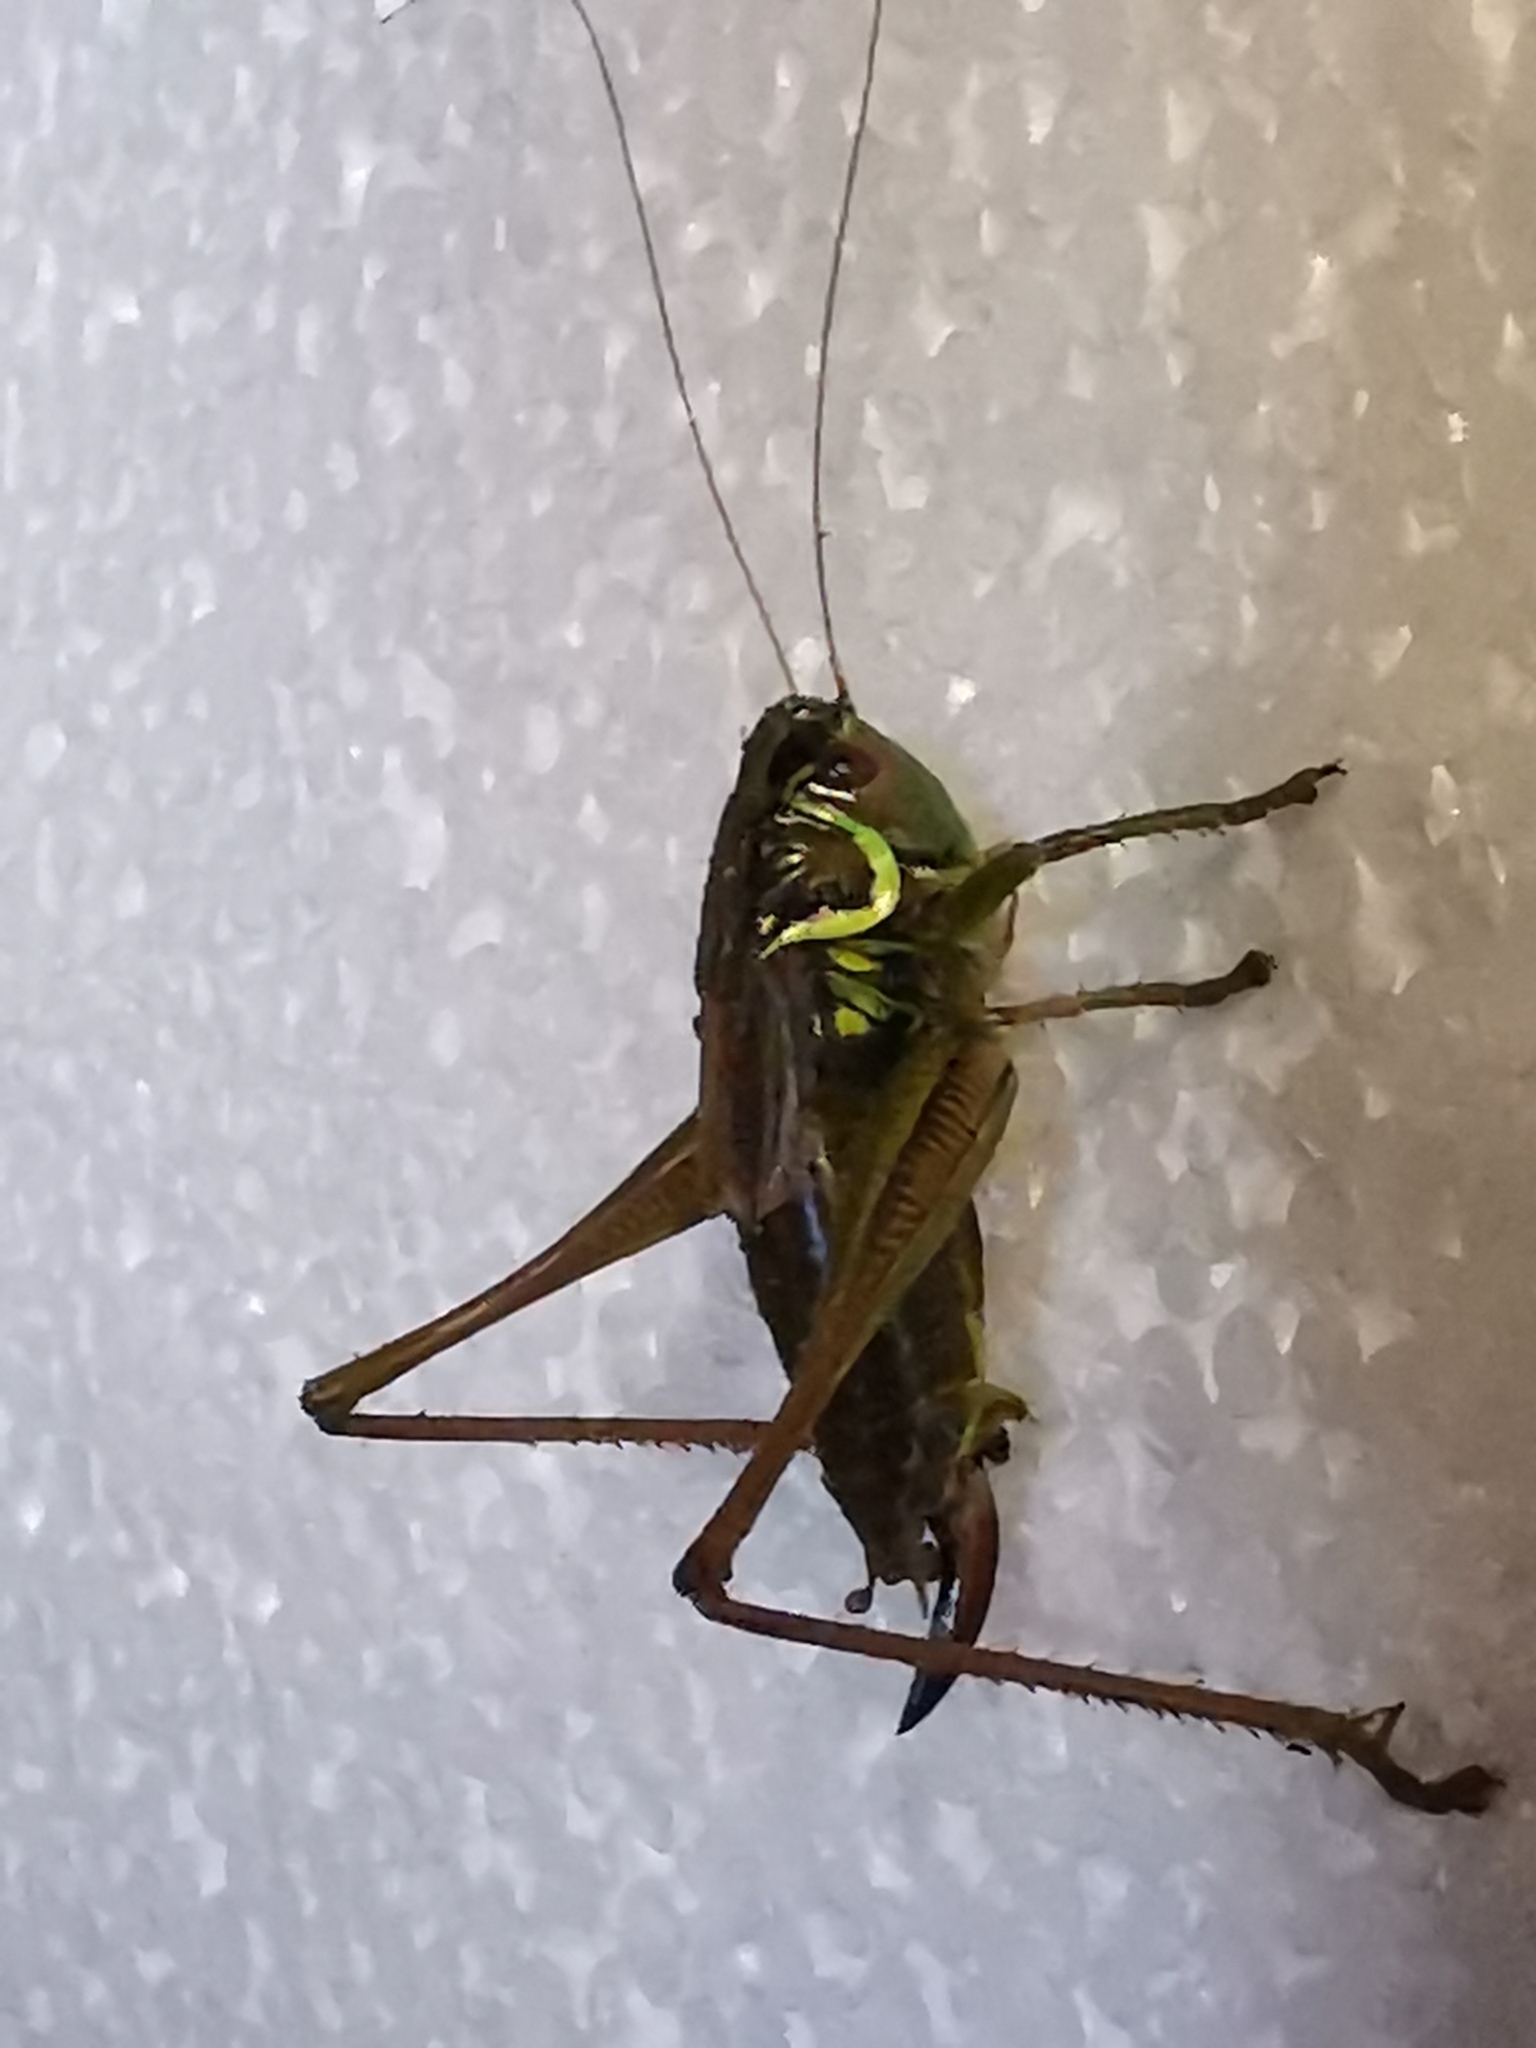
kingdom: Animalia
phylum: Arthropoda
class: Insecta
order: Orthoptera
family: Tettigoniidae
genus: Roeseliana
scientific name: Roeseliana roeselii
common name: Roesel's bush cricket
